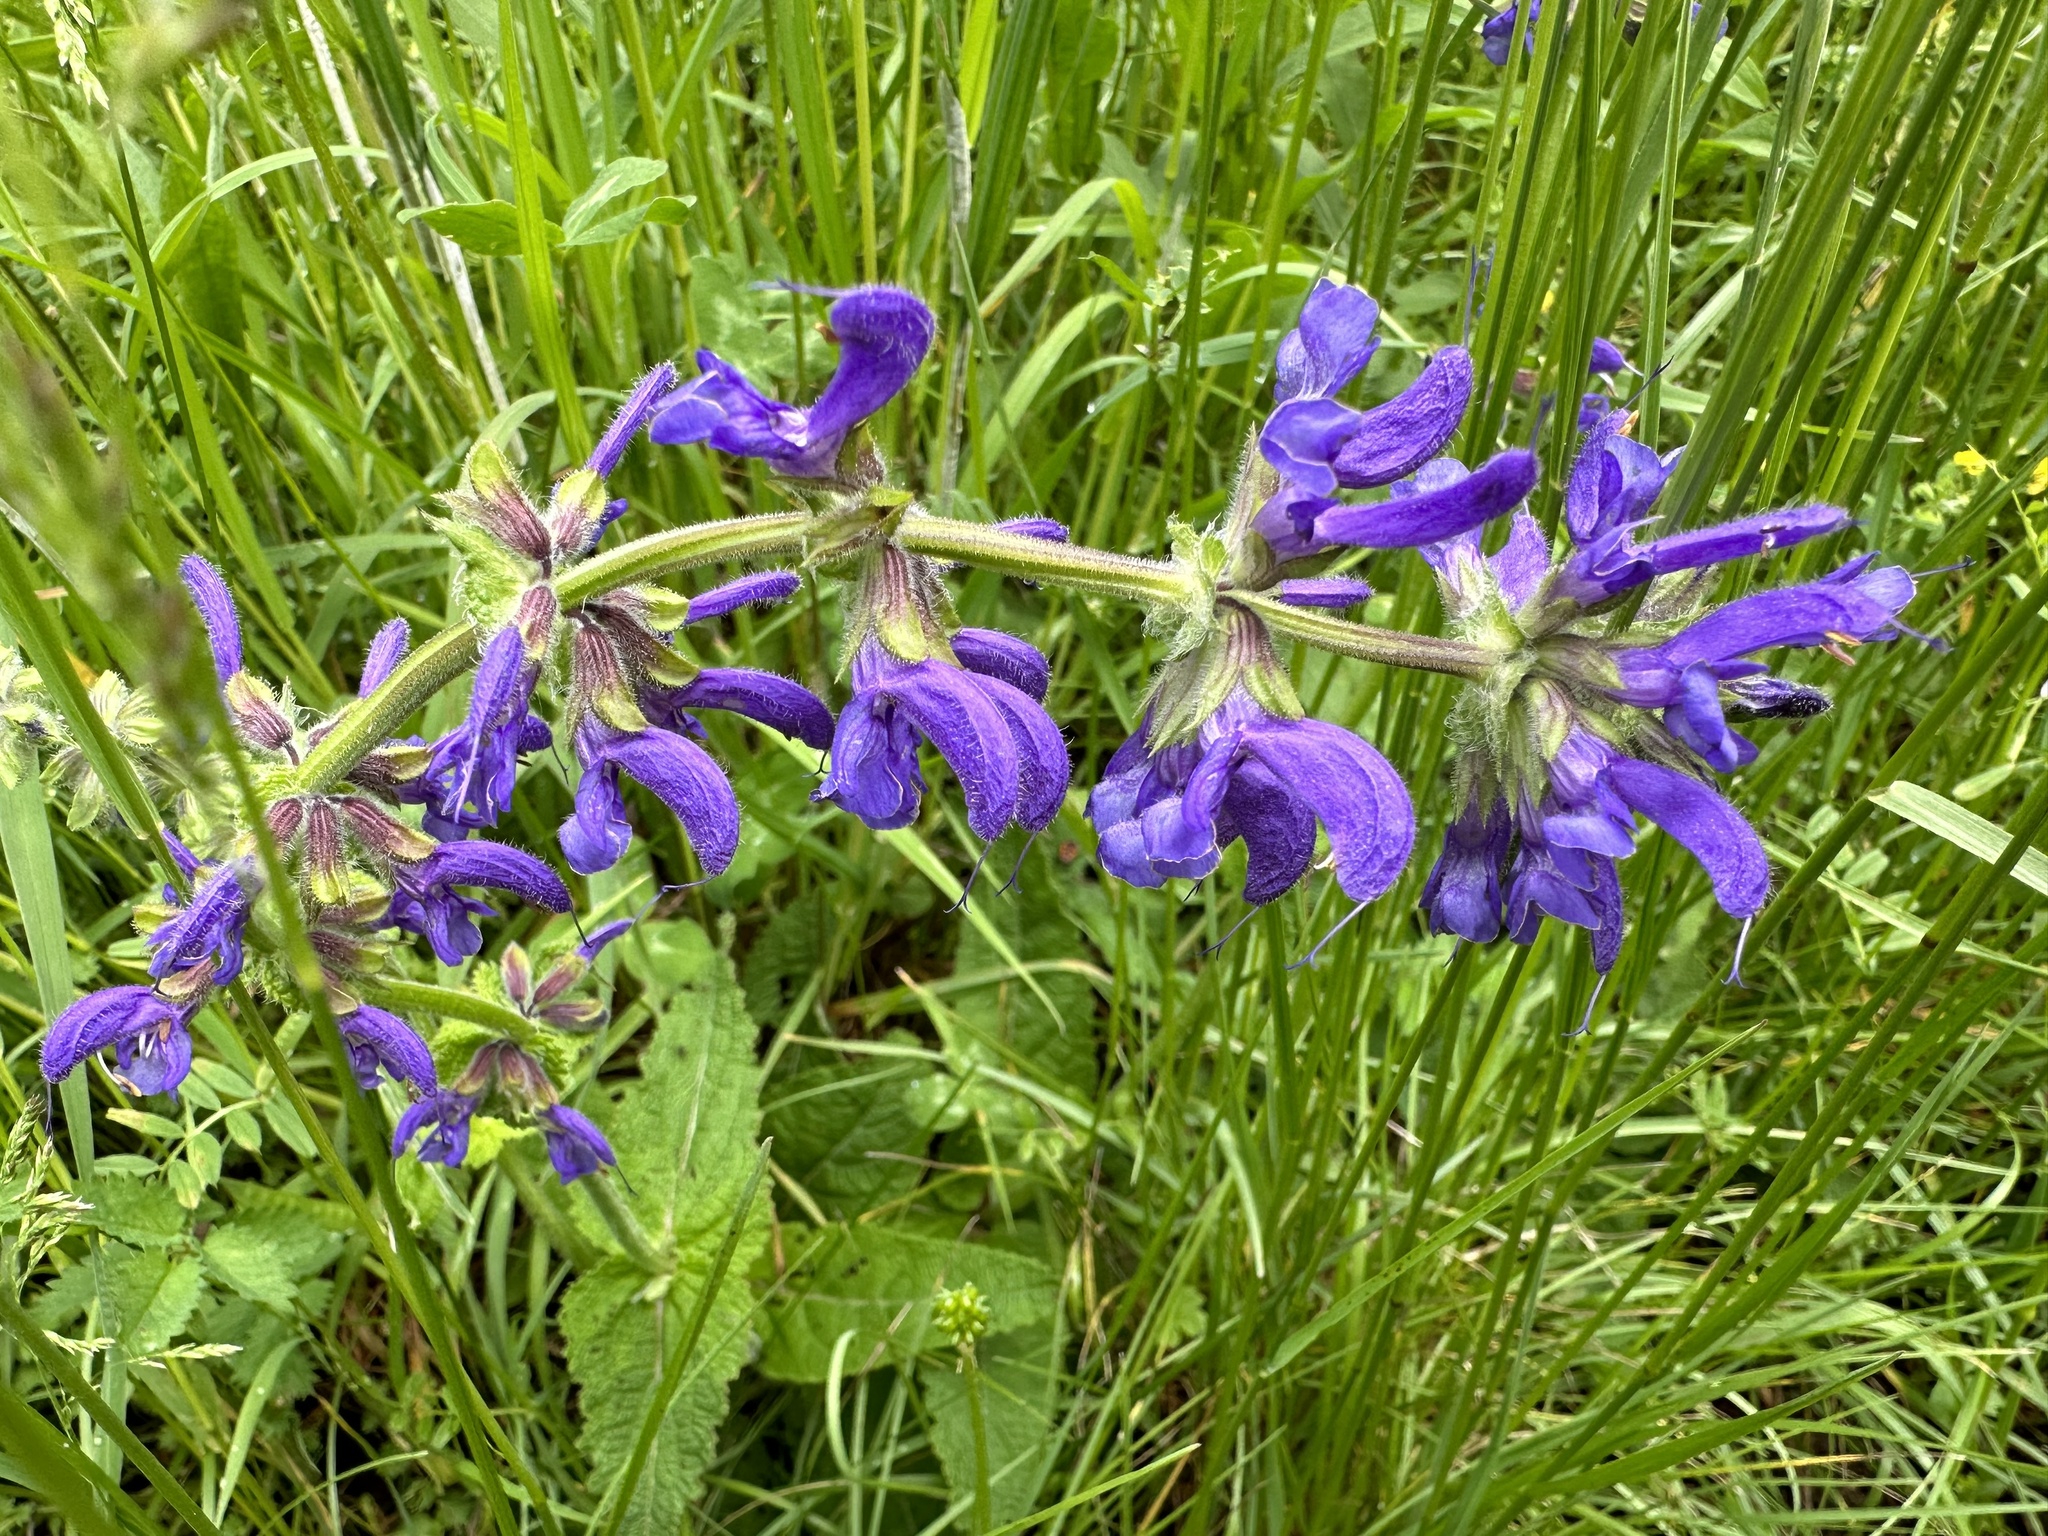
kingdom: Plantae
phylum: Tracheophyta
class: Magnoliopsida
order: Lamiales
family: Lamiaceae
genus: Salvia
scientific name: Salvia pratensis
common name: Meadow sage
